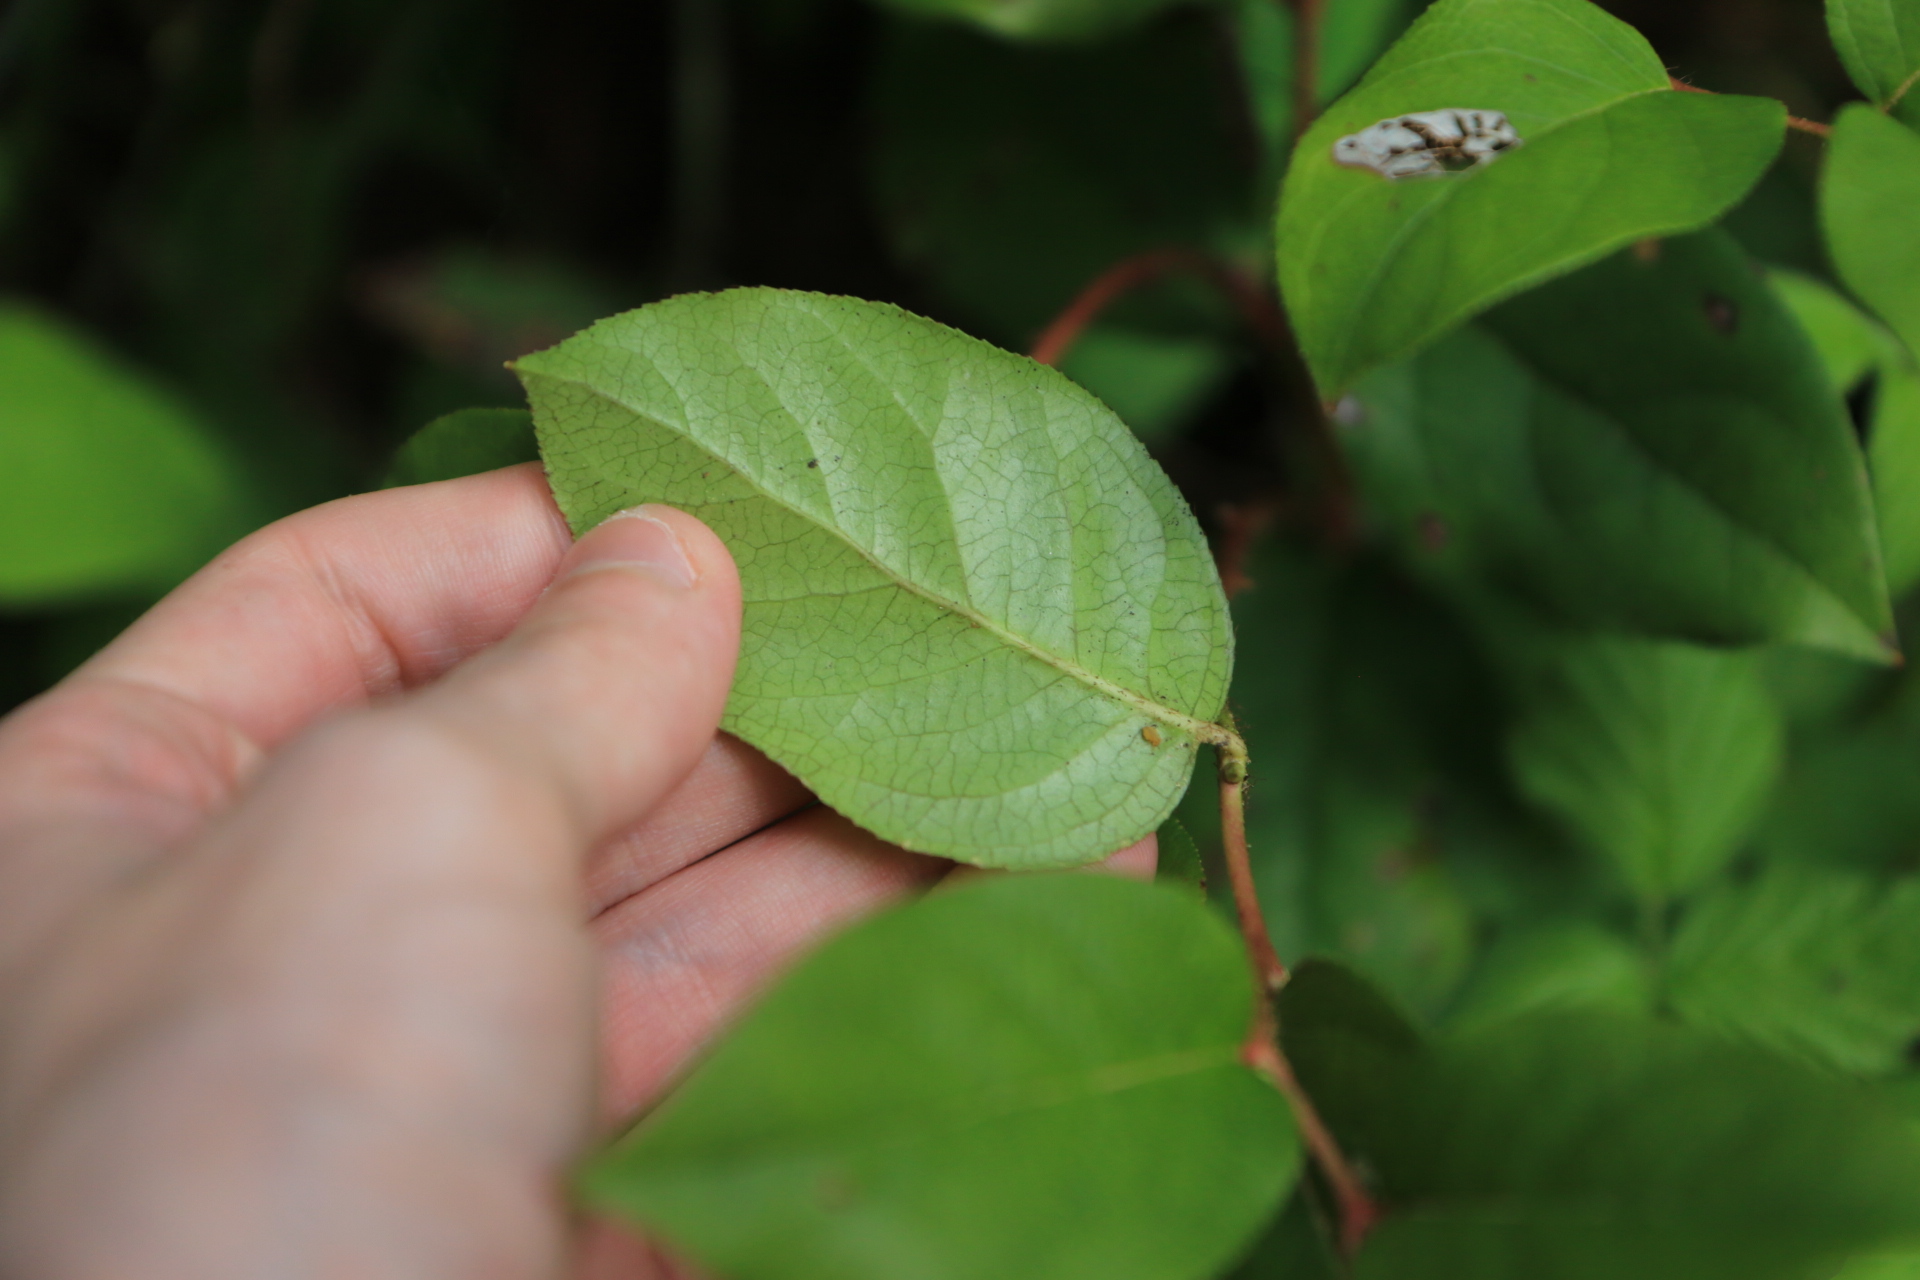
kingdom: Plantae
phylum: Tracheophyta
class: Magnoliopsida
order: Ericales
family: Ericaceae
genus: Gaultheria
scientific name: Gaultheria shallon
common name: Shallon
